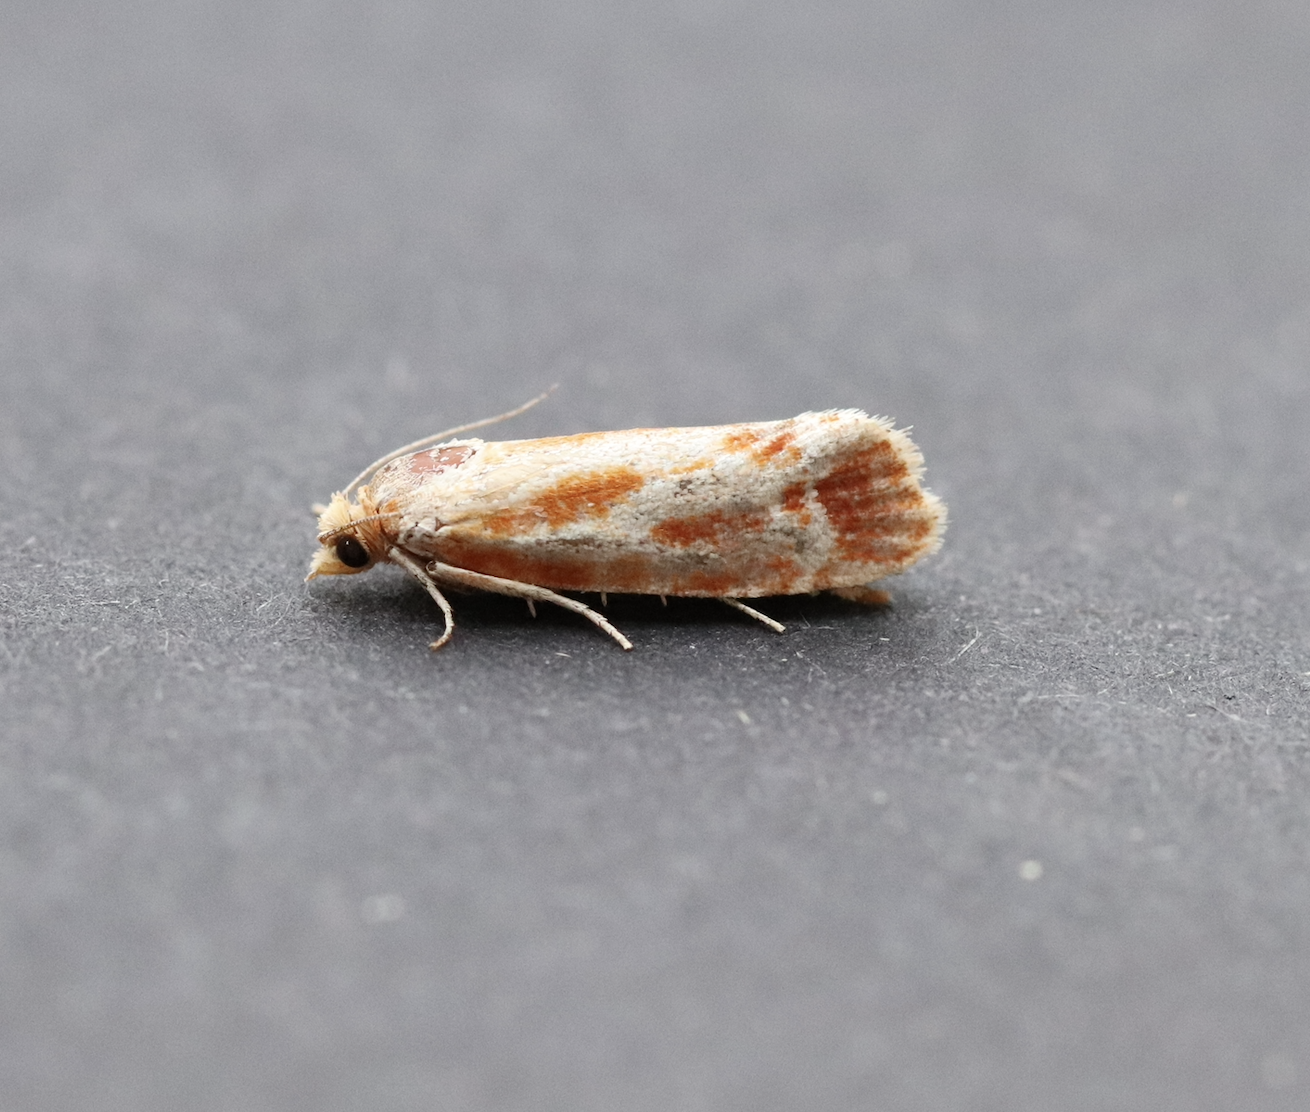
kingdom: Animalia
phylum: Arthropoda
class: Insecta
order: Lepidoptera
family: Tortricidae
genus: Rhyacionia
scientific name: Rhyacionia buoliana
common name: European pine shoot moth
